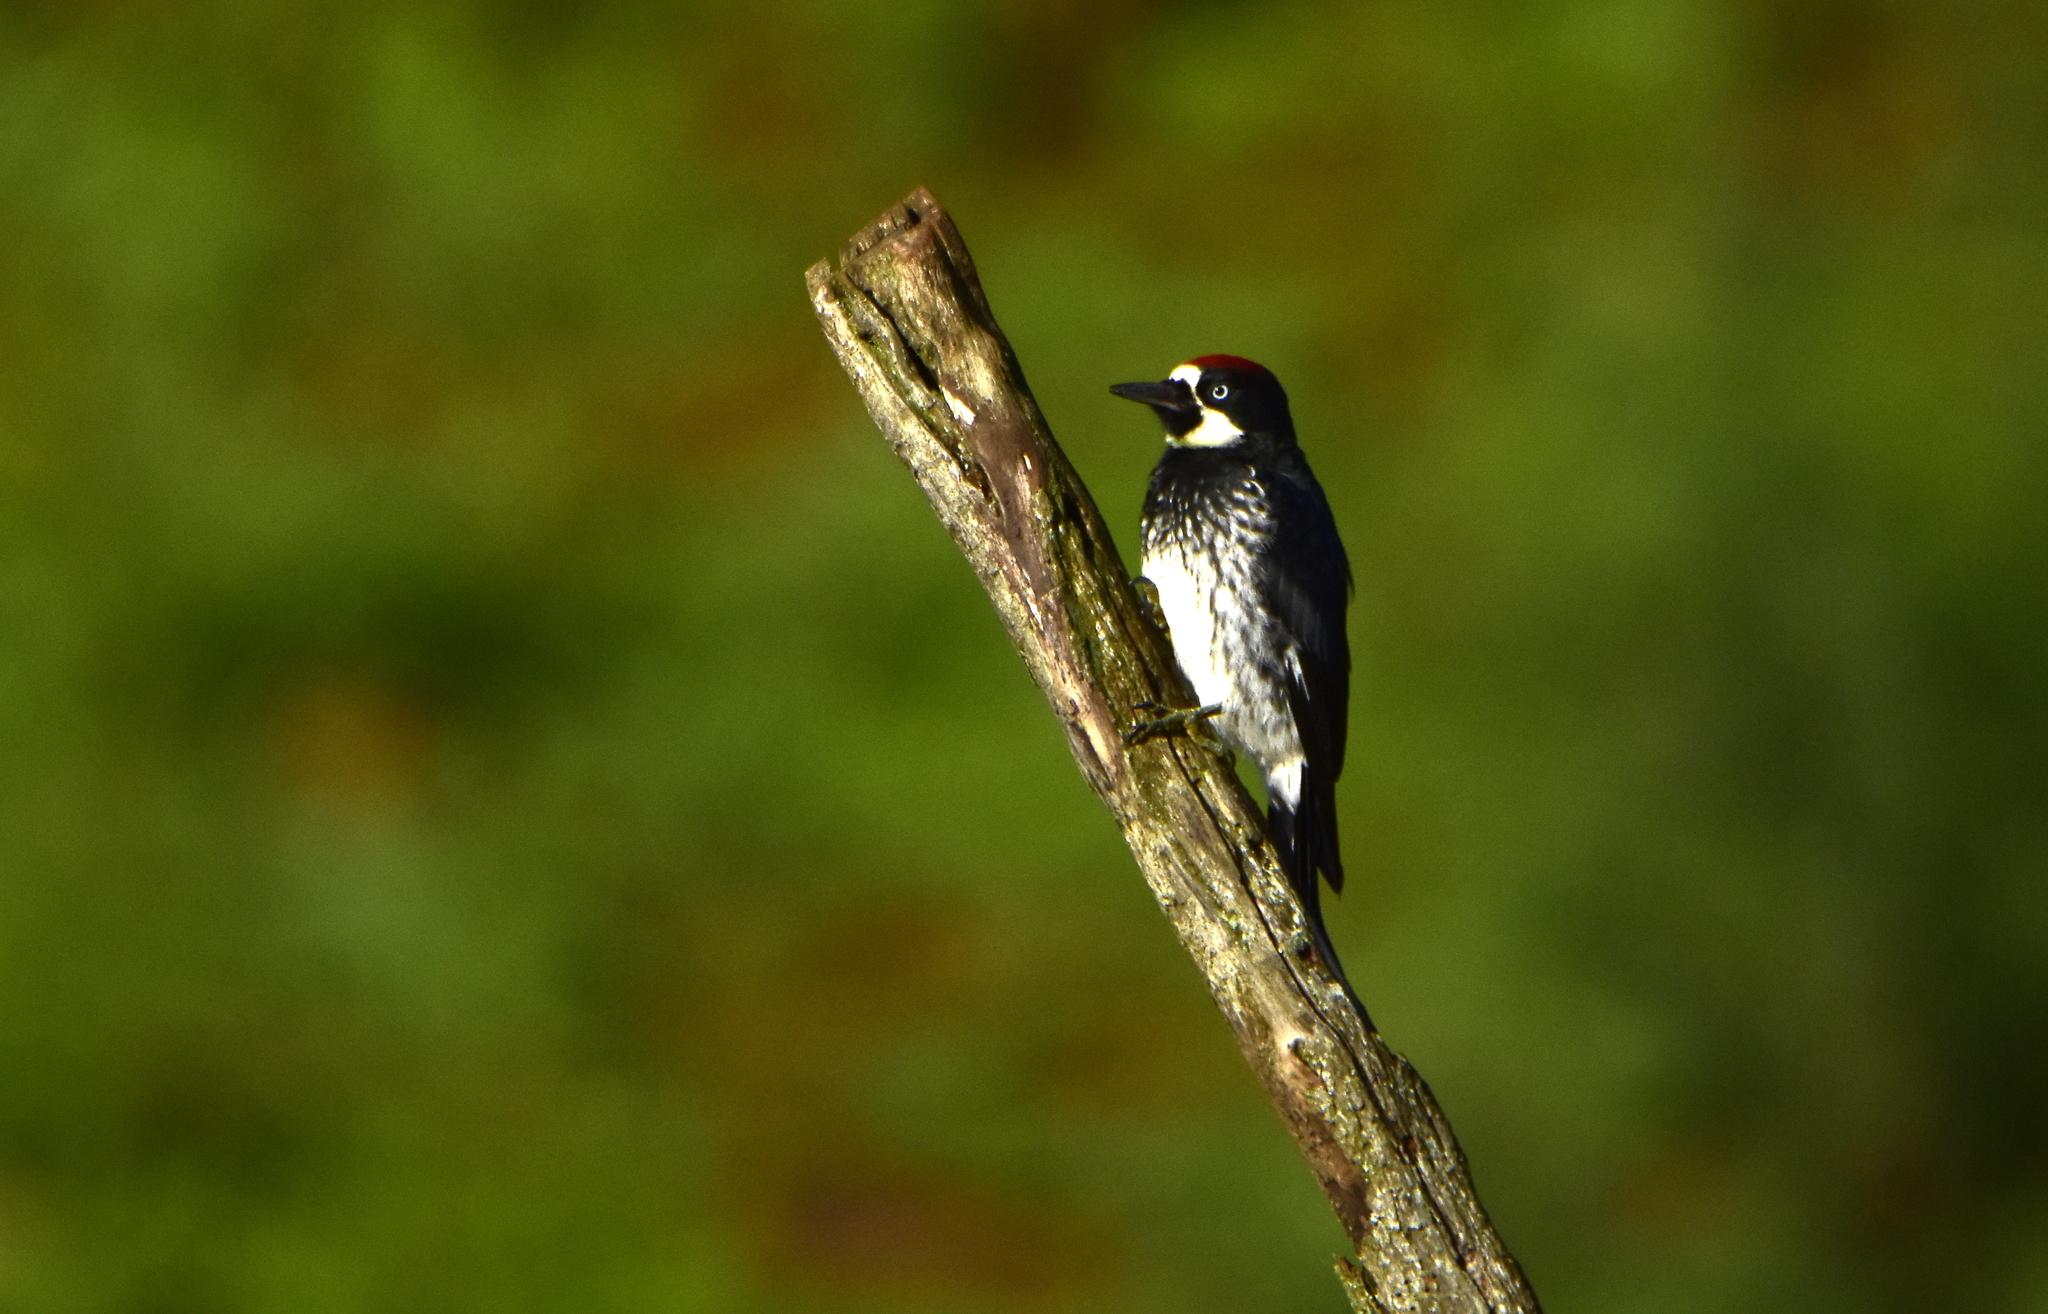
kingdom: Animalia
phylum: Chordata
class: Aves
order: Piciformes
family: Picidae
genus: Melanerpes
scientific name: Melanerpes formicivorus
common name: Acorn woodpecker
